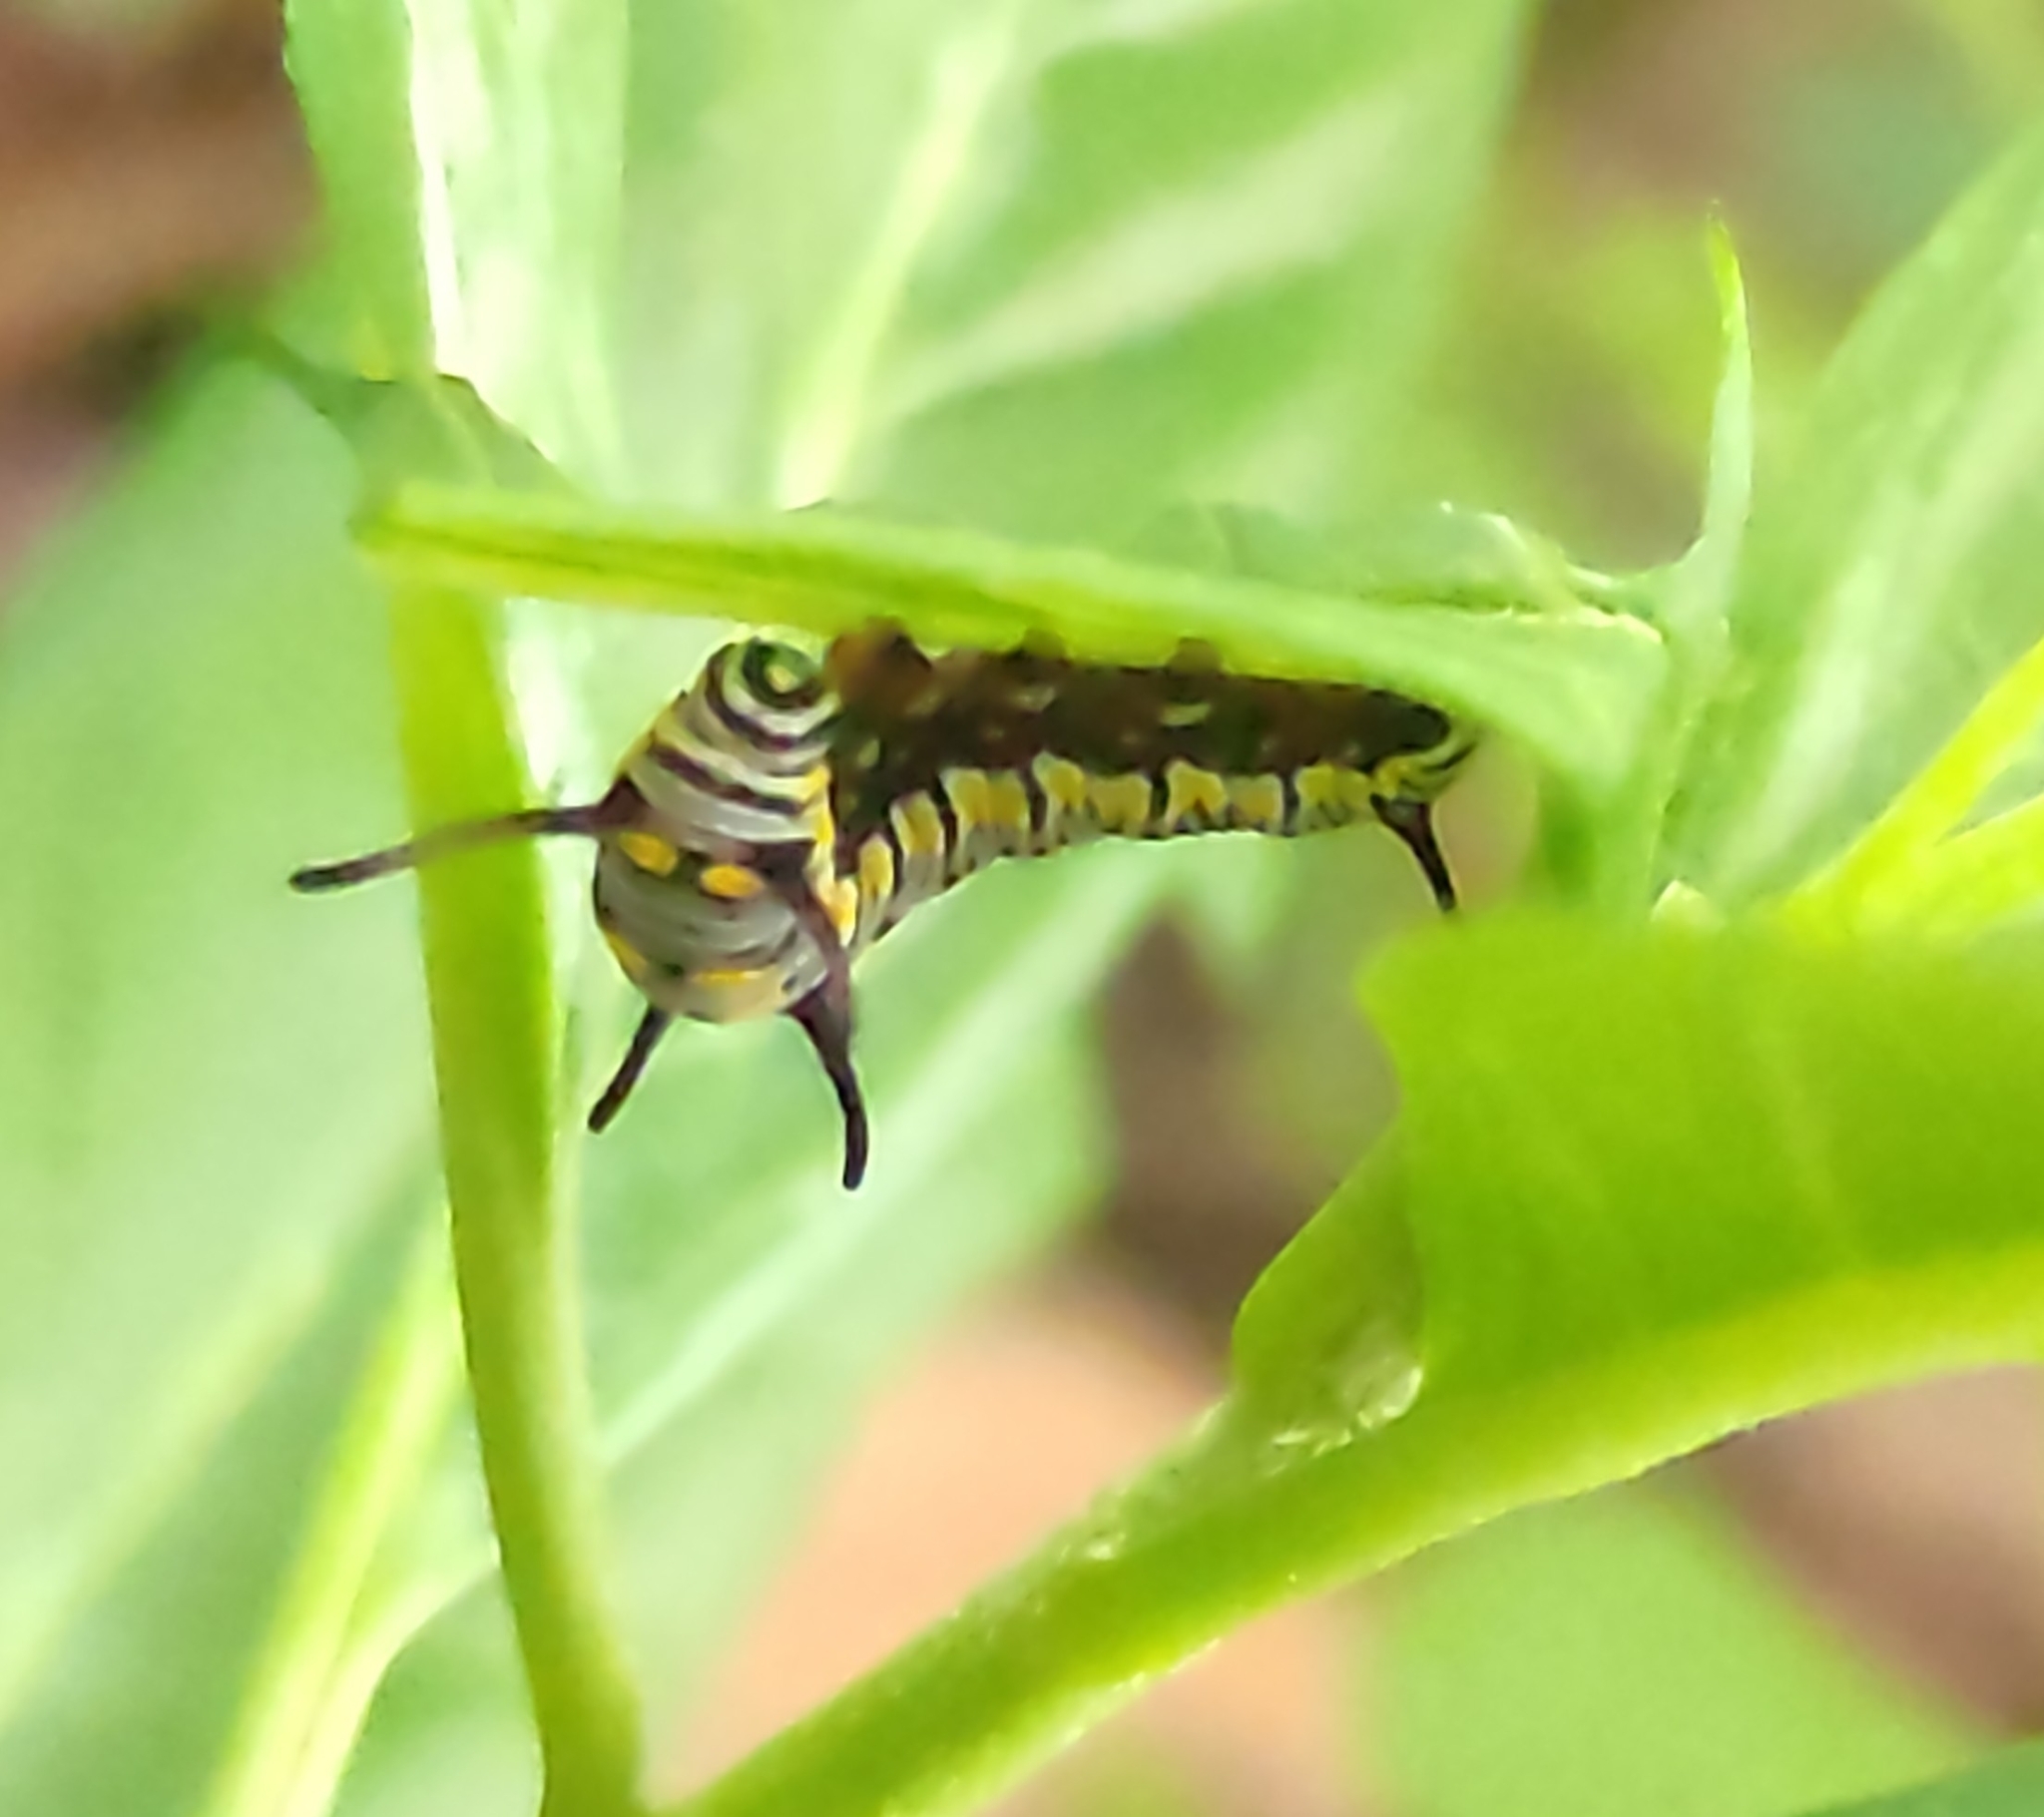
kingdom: Animalia
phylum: Arthropoda
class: Insecta
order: Lepidoptera
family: Nymphalidae
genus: Danaus
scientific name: Danaus chrysippus
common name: Plain tiger
